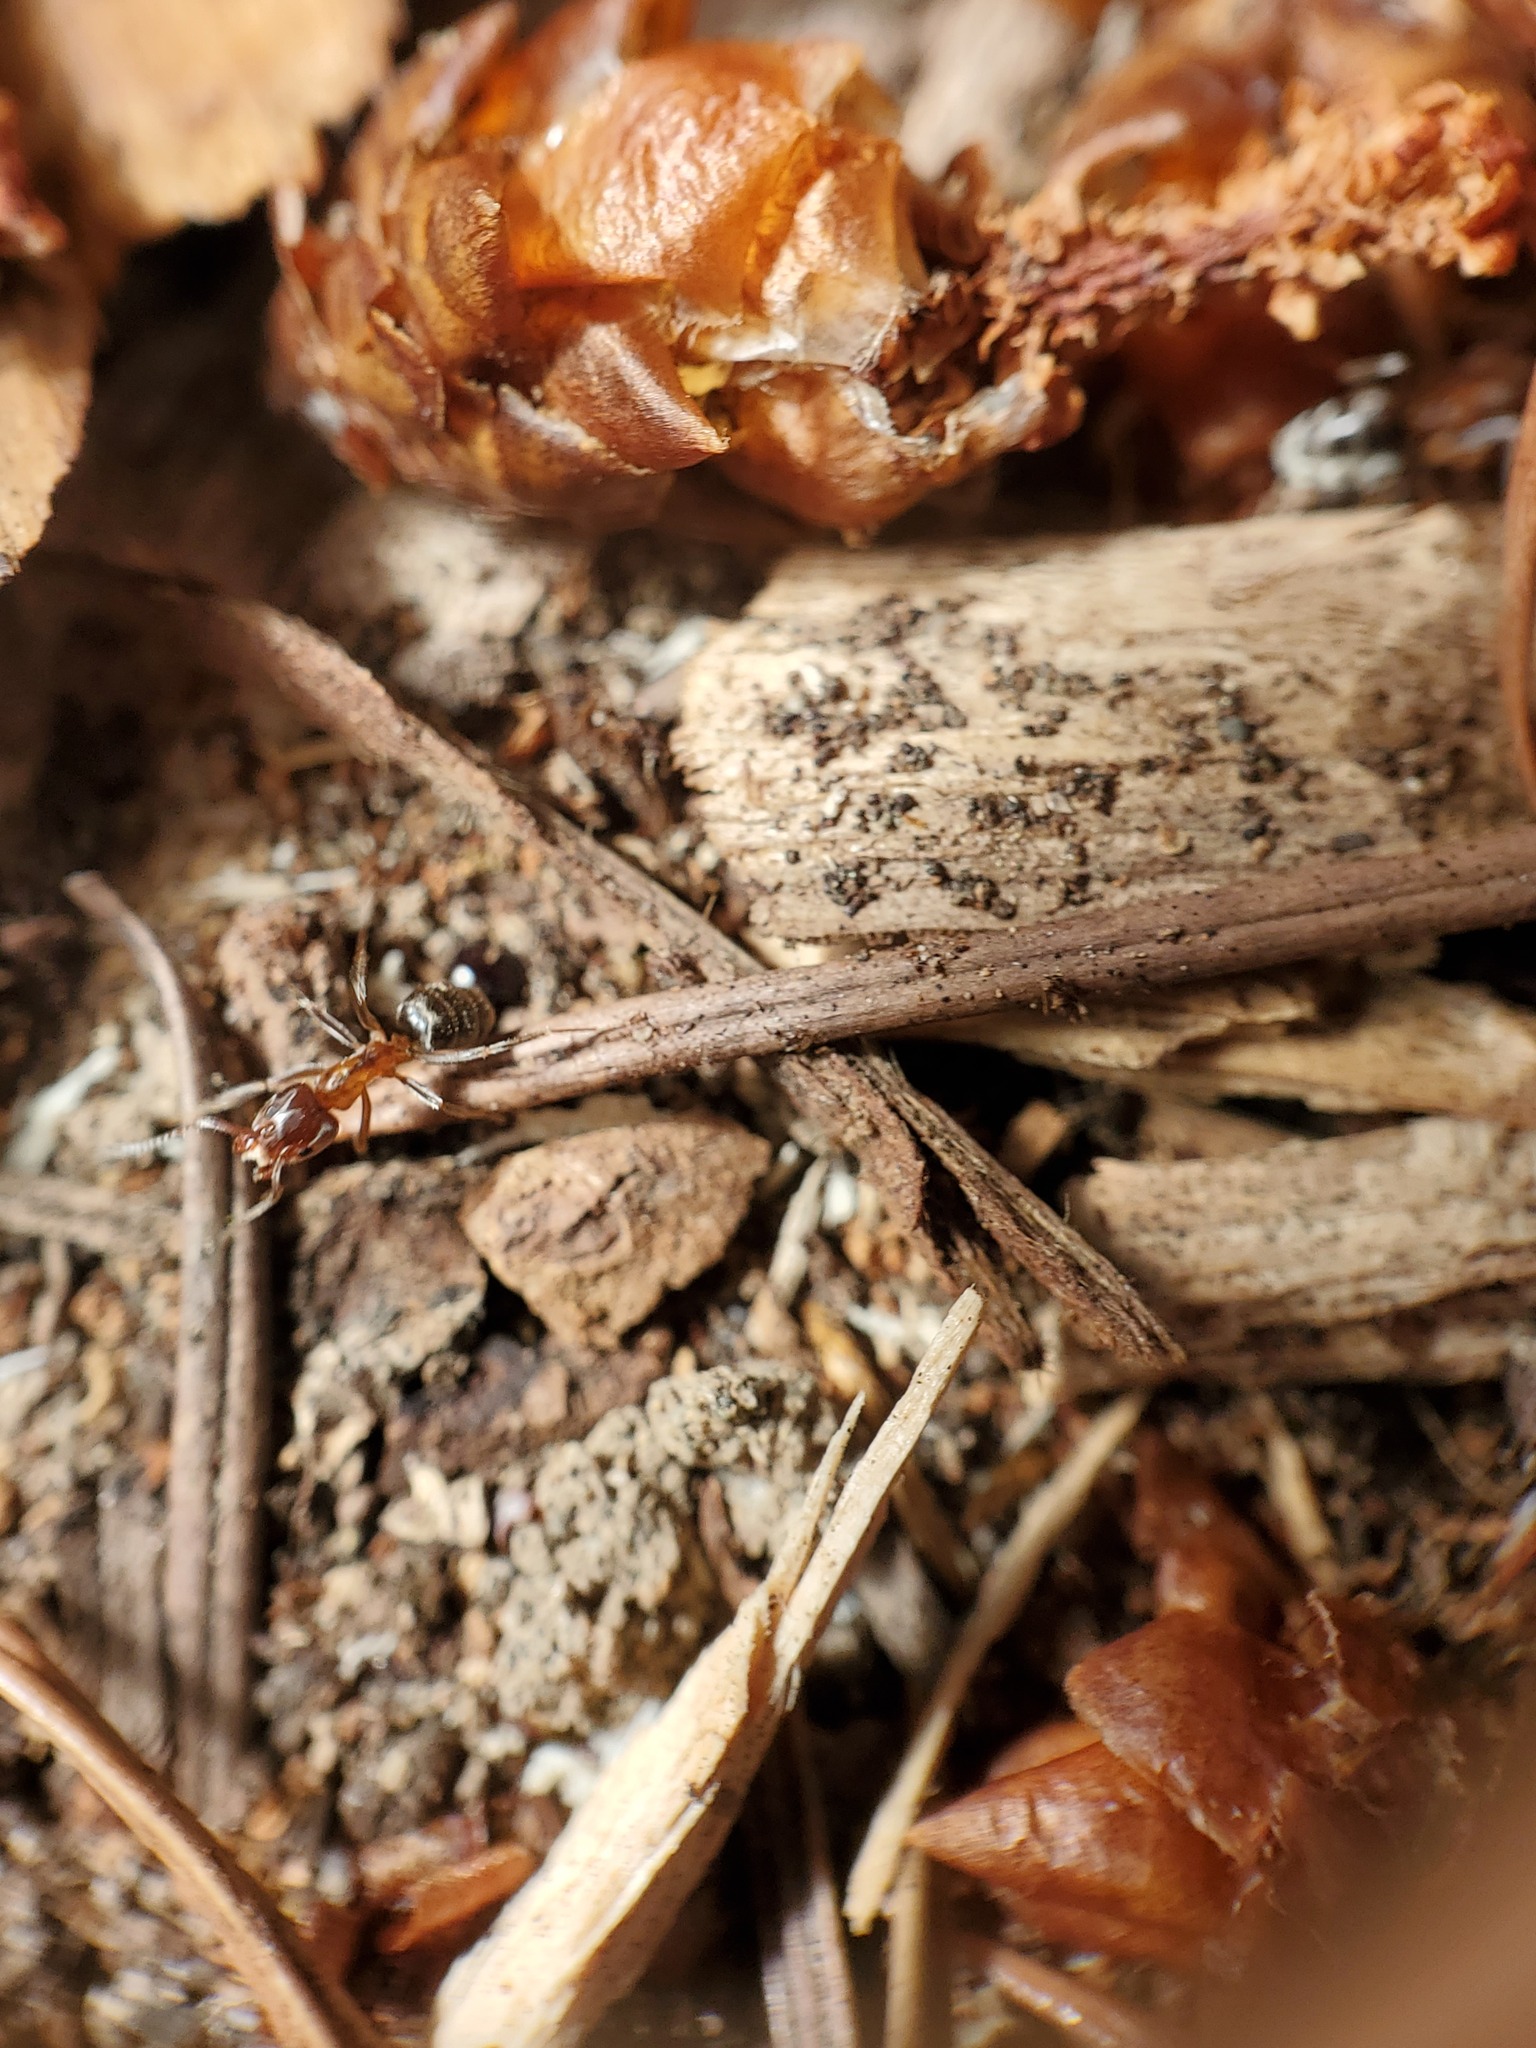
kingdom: Animalia
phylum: Arthropoda
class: Insecta
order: Hymenoptera
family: Formicidae
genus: Liometopum
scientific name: Liometopum occidentale
